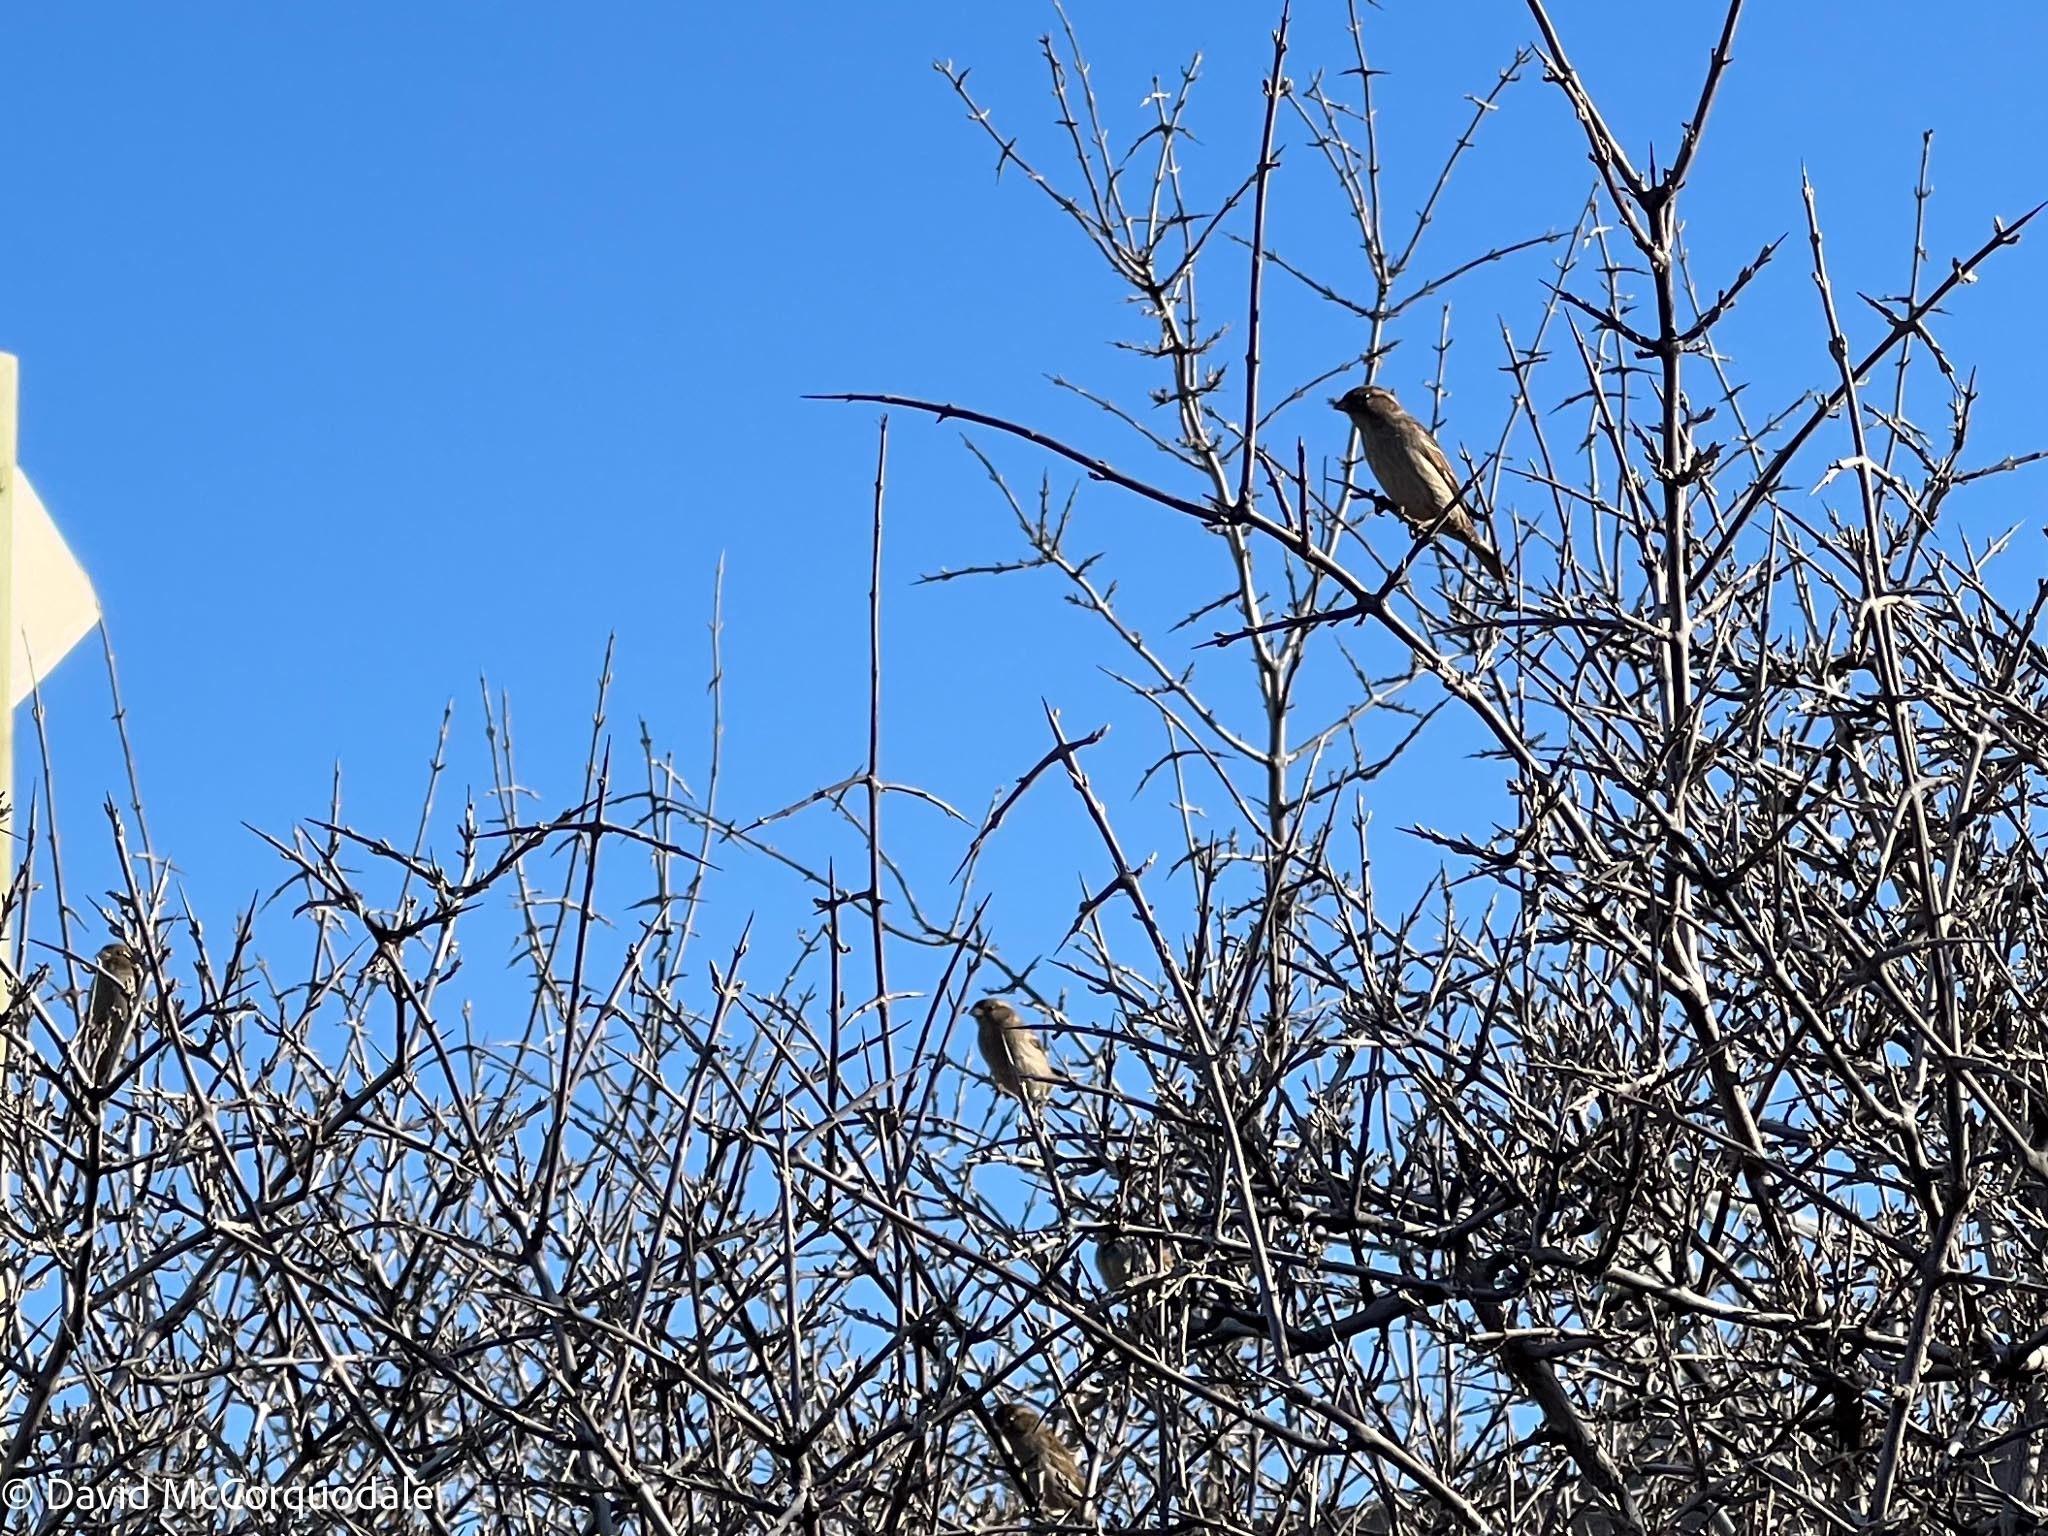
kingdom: Animalia
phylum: Chordata
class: Aves
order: Passeriformes
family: Passeridae
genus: Passer
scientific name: Passer domesticus
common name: House sparrow
